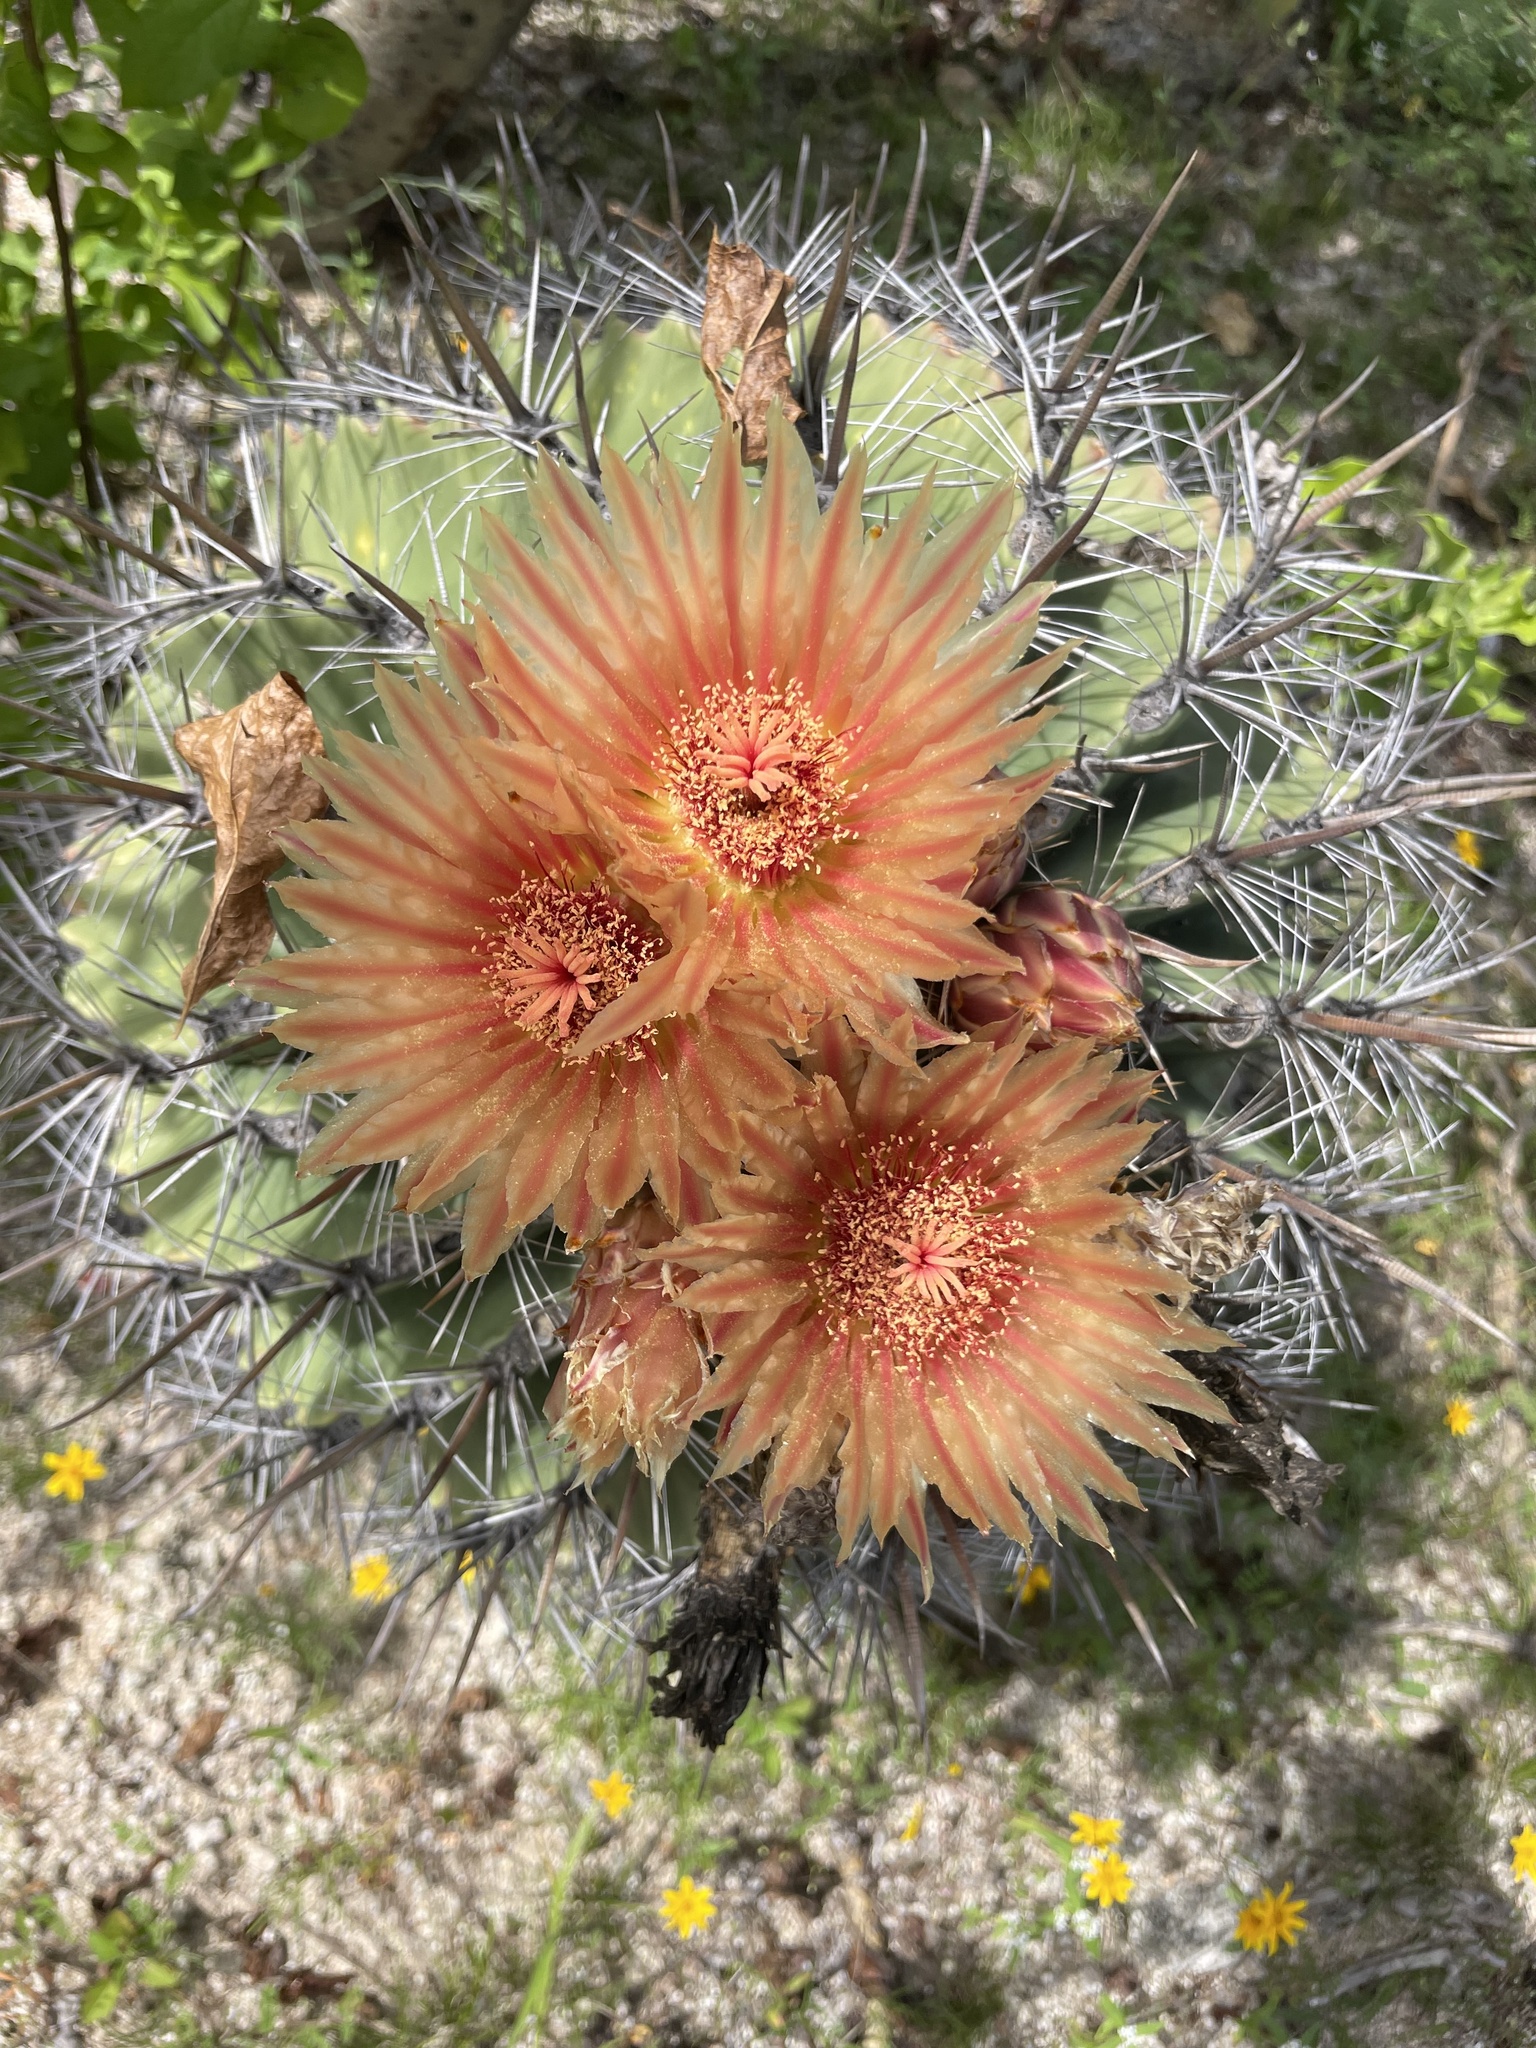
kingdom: Plantae
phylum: Tracheophyta
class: Magnoliopsida
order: Caryophyllales
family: Cactaceae
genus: Ferocactus
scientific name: Ferocactus townsendianus
